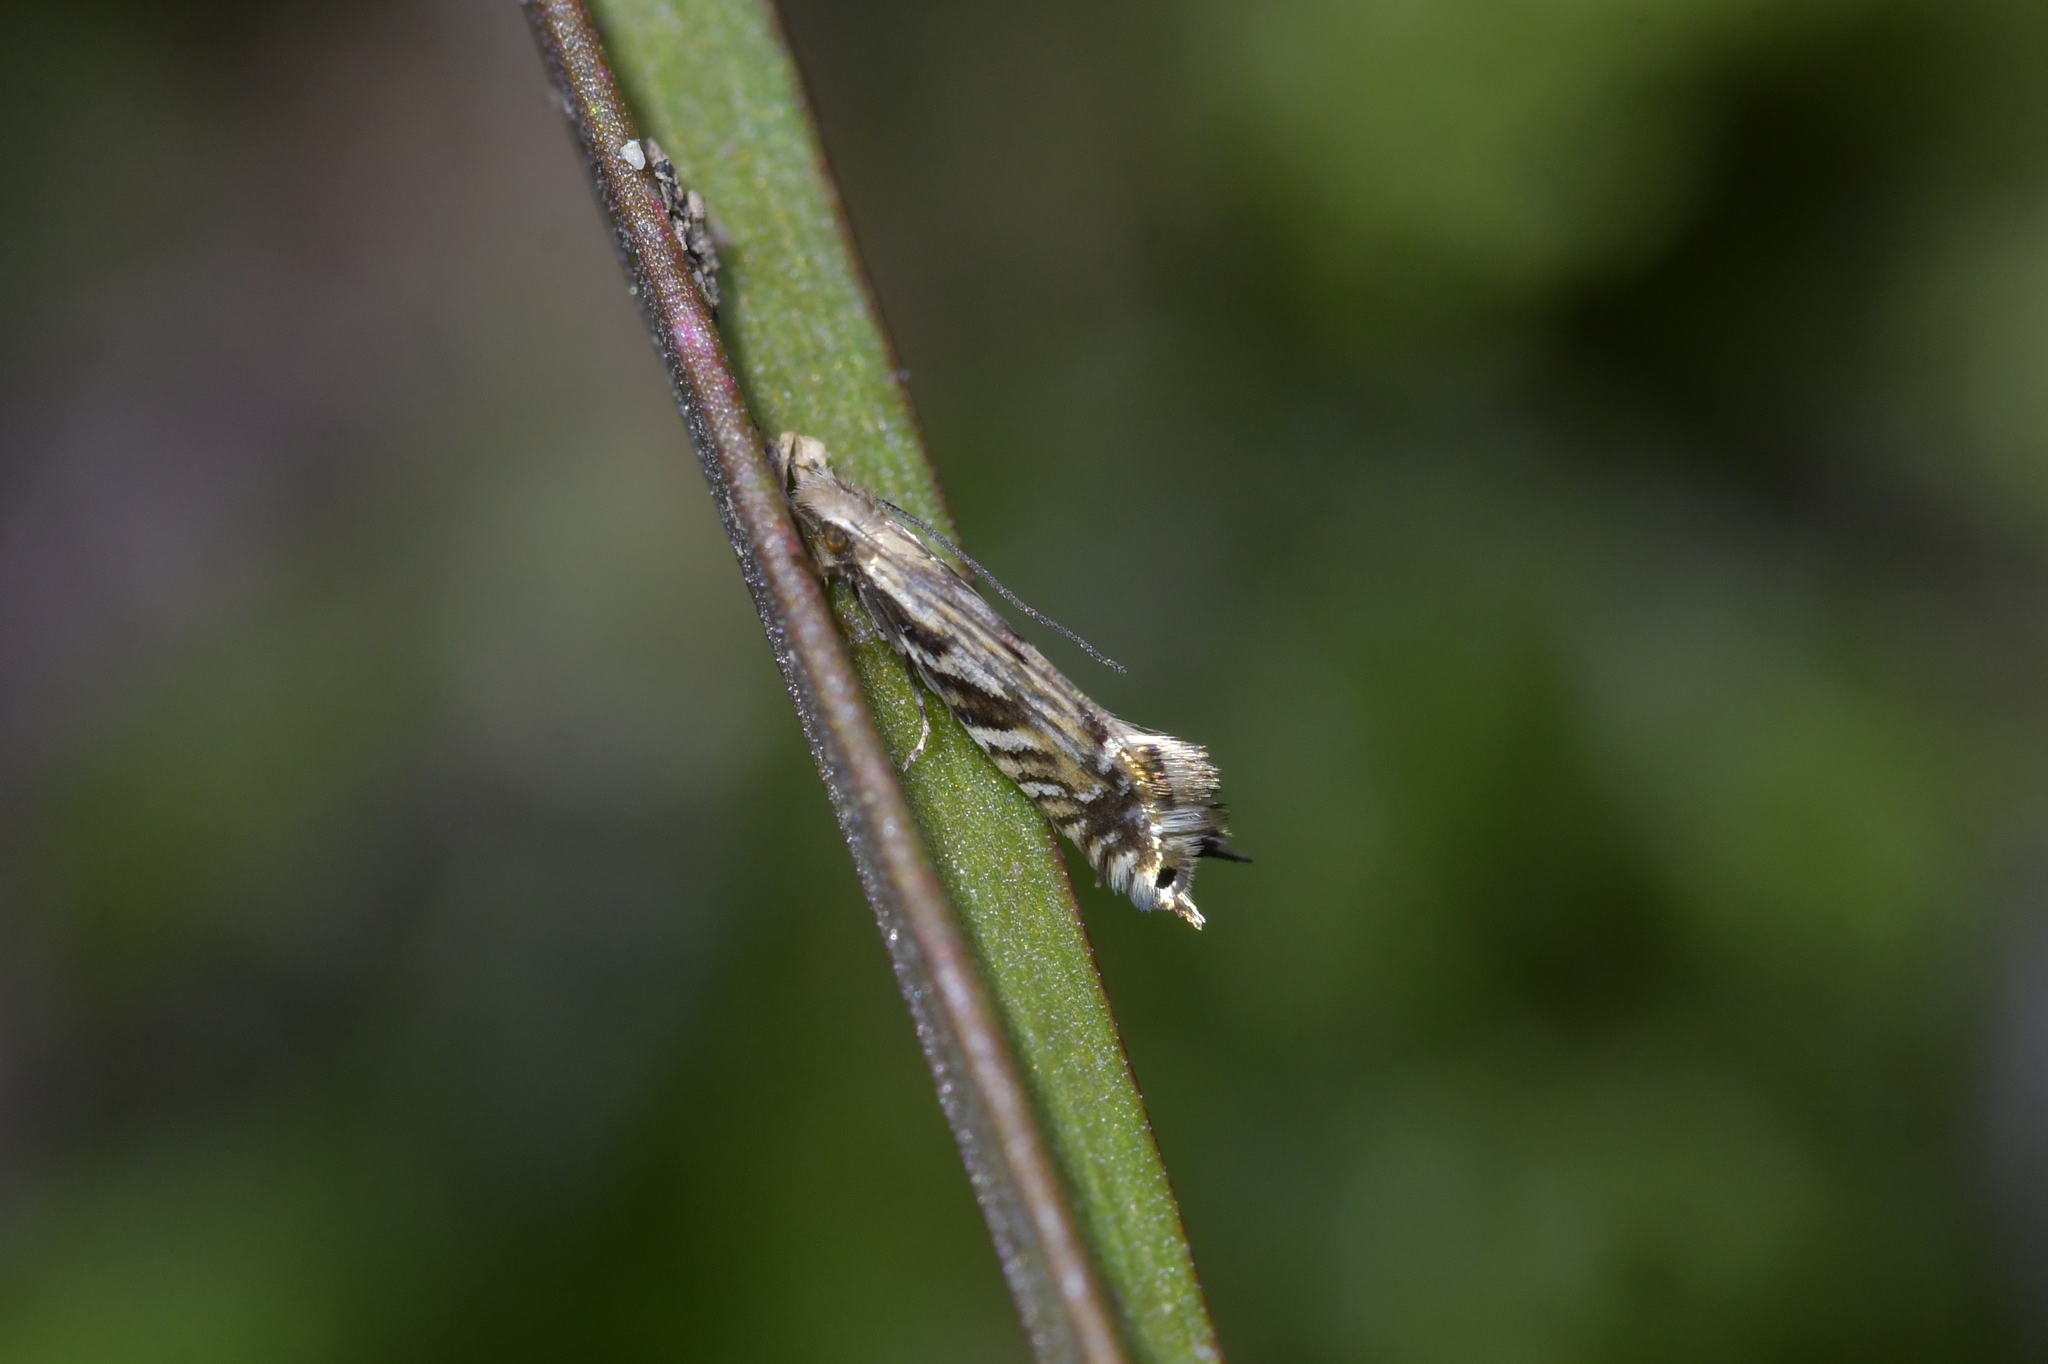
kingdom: Animalia
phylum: Arthropoda
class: Insecta
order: Lepidoptera
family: Tineidae
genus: Tinea
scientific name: Tinea accusatrix
